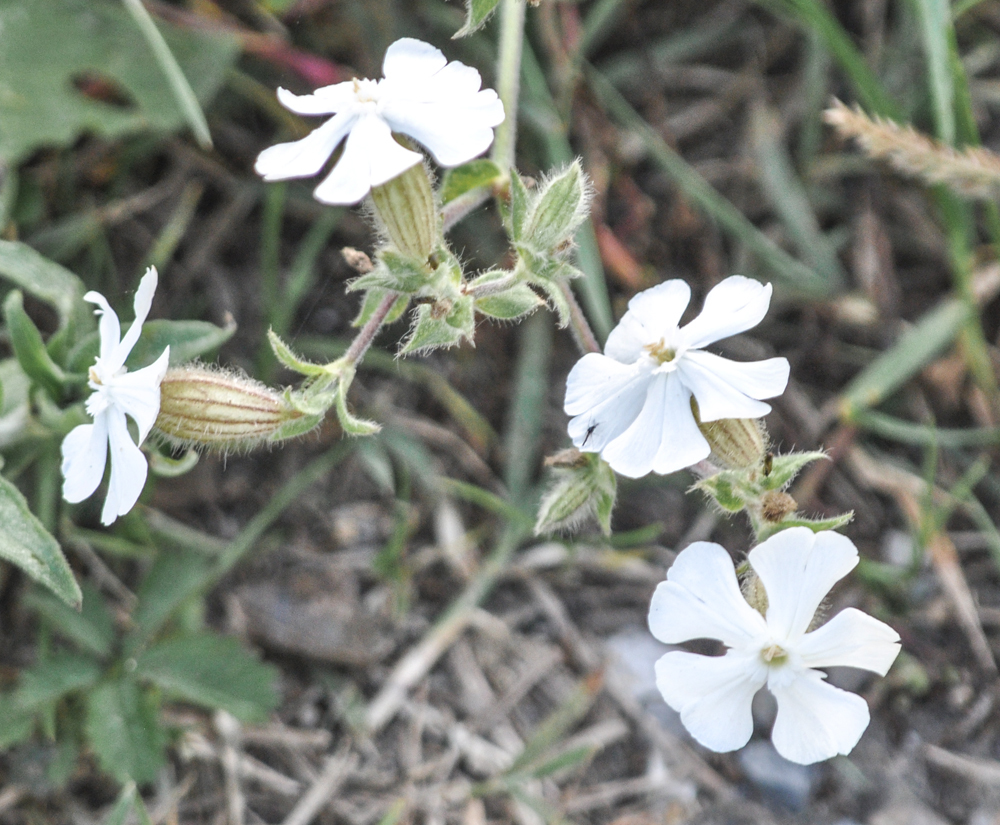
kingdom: Plantae
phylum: Tracheophyta
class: Magnoliopsida
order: Caryophyllales
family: Caryophyllaceae
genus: Silene
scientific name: Silene latifolia
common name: White campion
